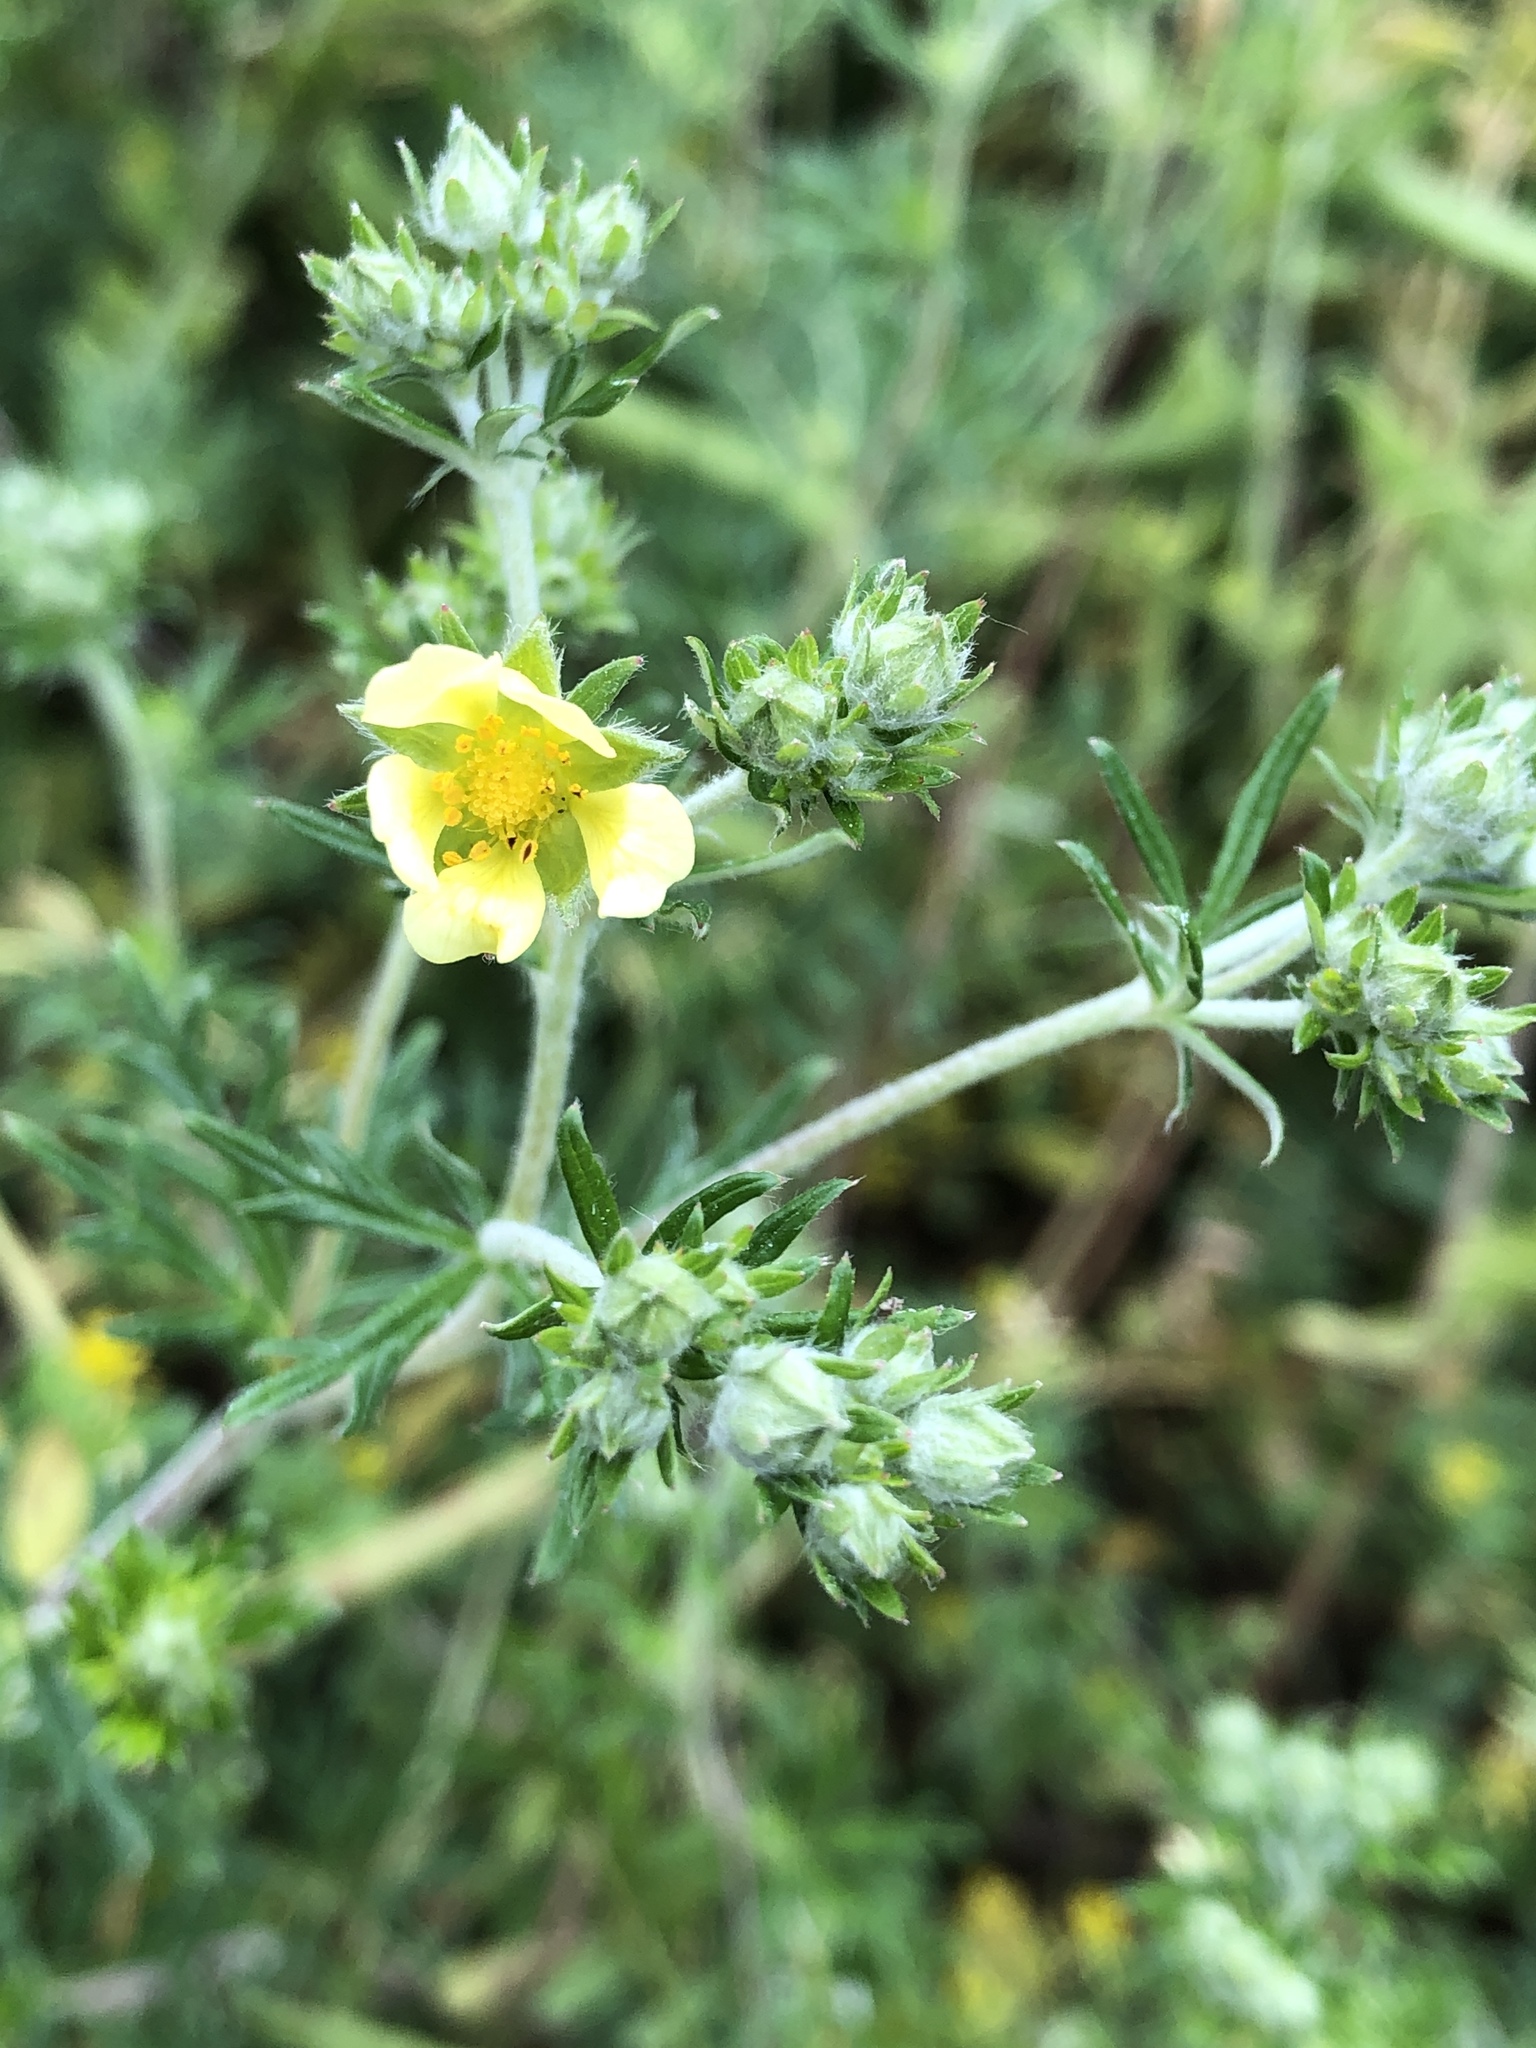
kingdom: Plantae
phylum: Tracheophyta
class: Magnoliopsida
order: Rosales
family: Rosaceae
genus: Potentilla
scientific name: Potentilla argentea
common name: Hoary cinquefoil
